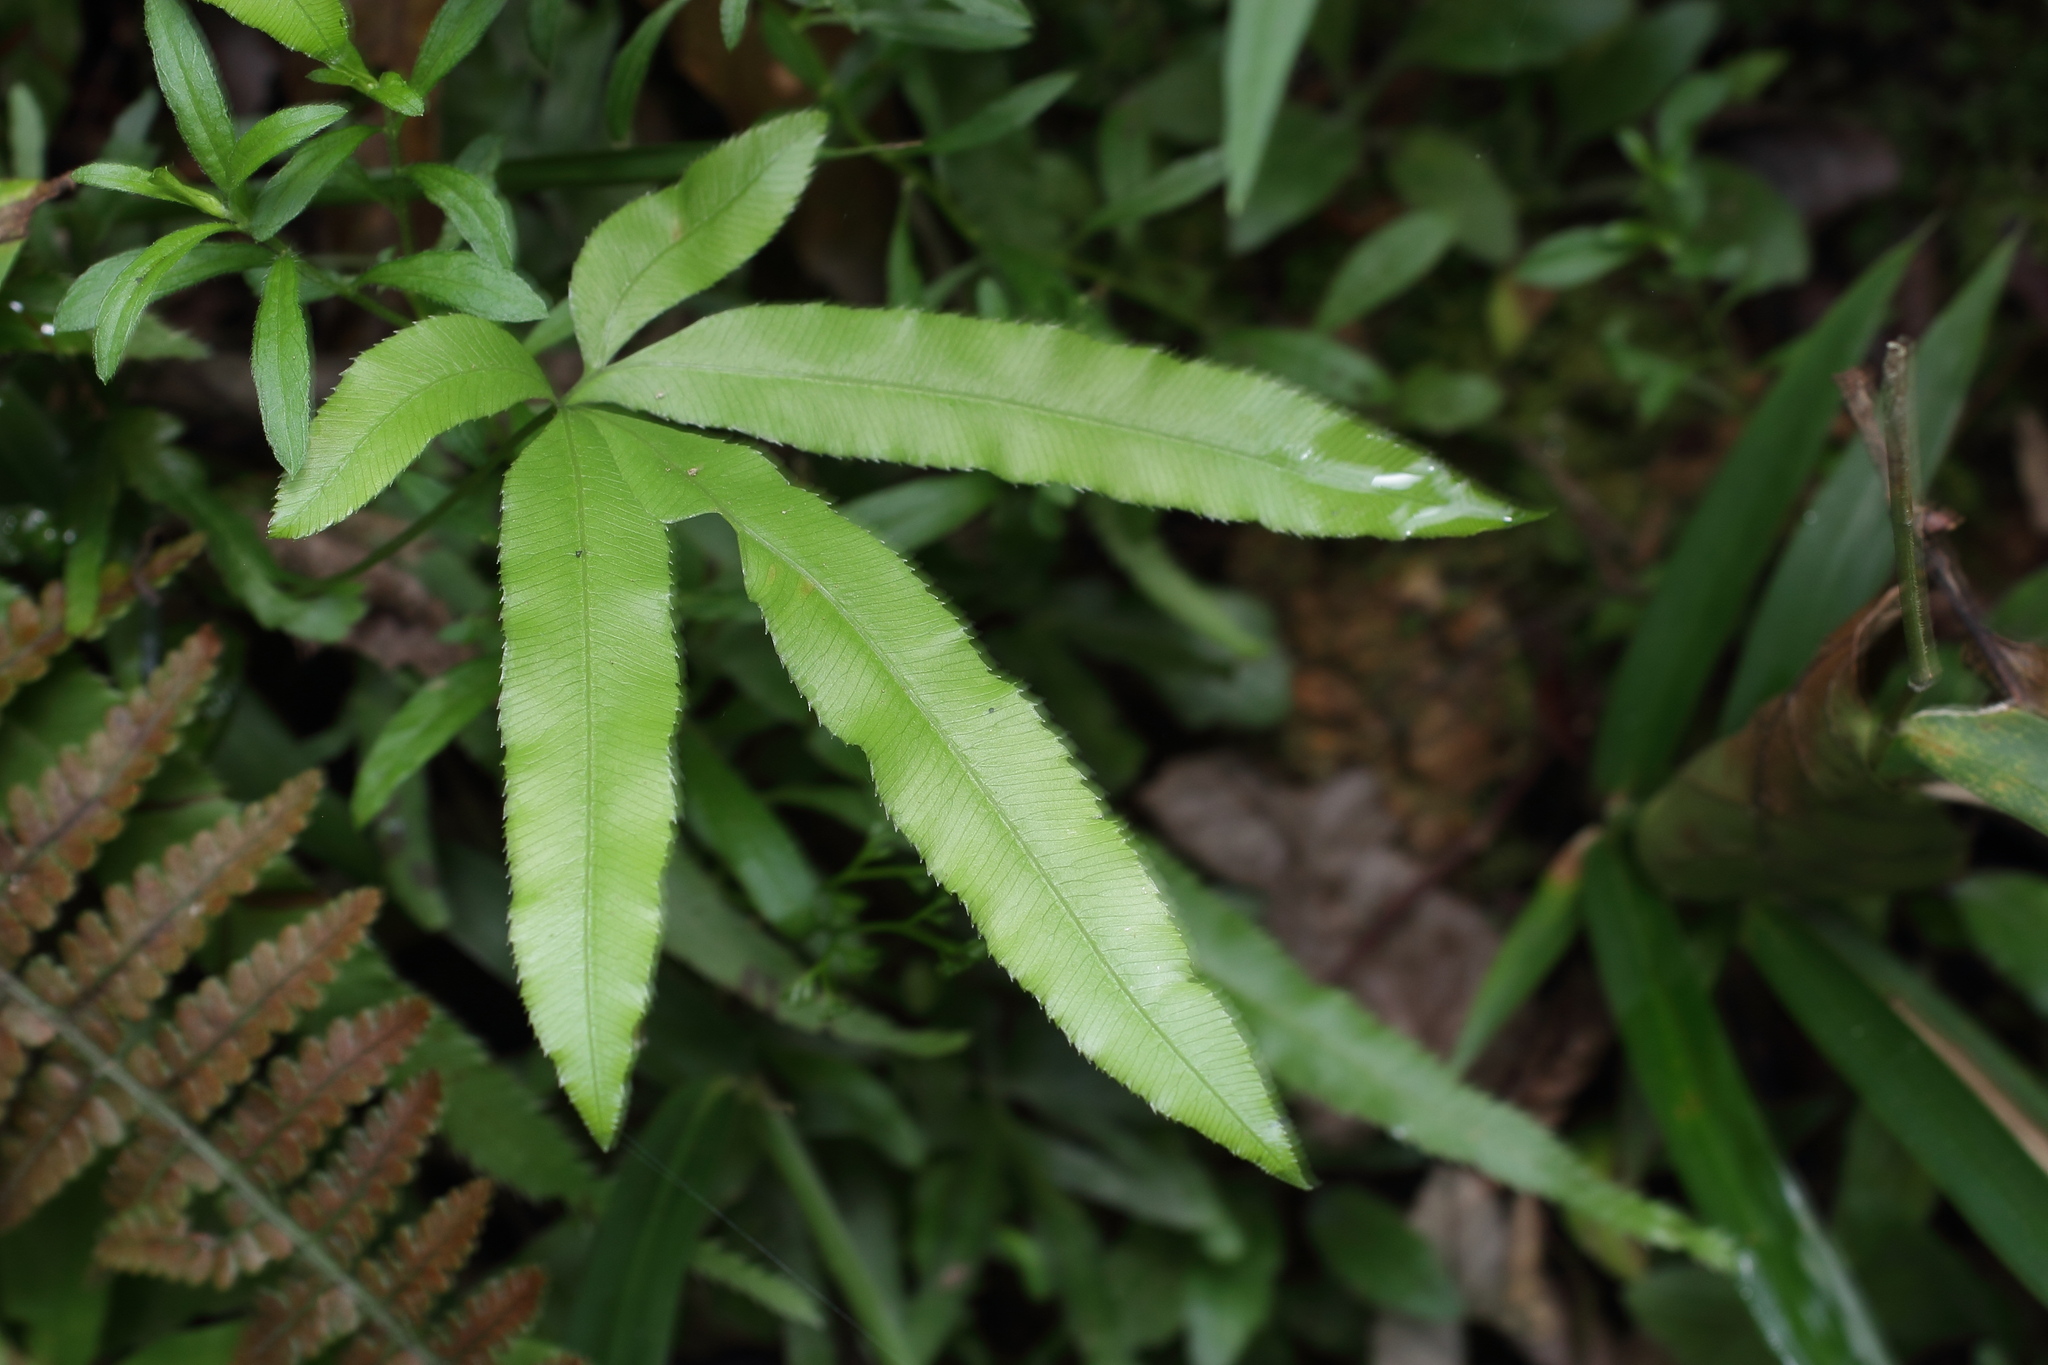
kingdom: Plantae
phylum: Tracheophyta
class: Polypodiopsida
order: Polypodiales
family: Pteridaceae
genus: Pteris
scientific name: Pteris cretica
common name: Ribbon fern
